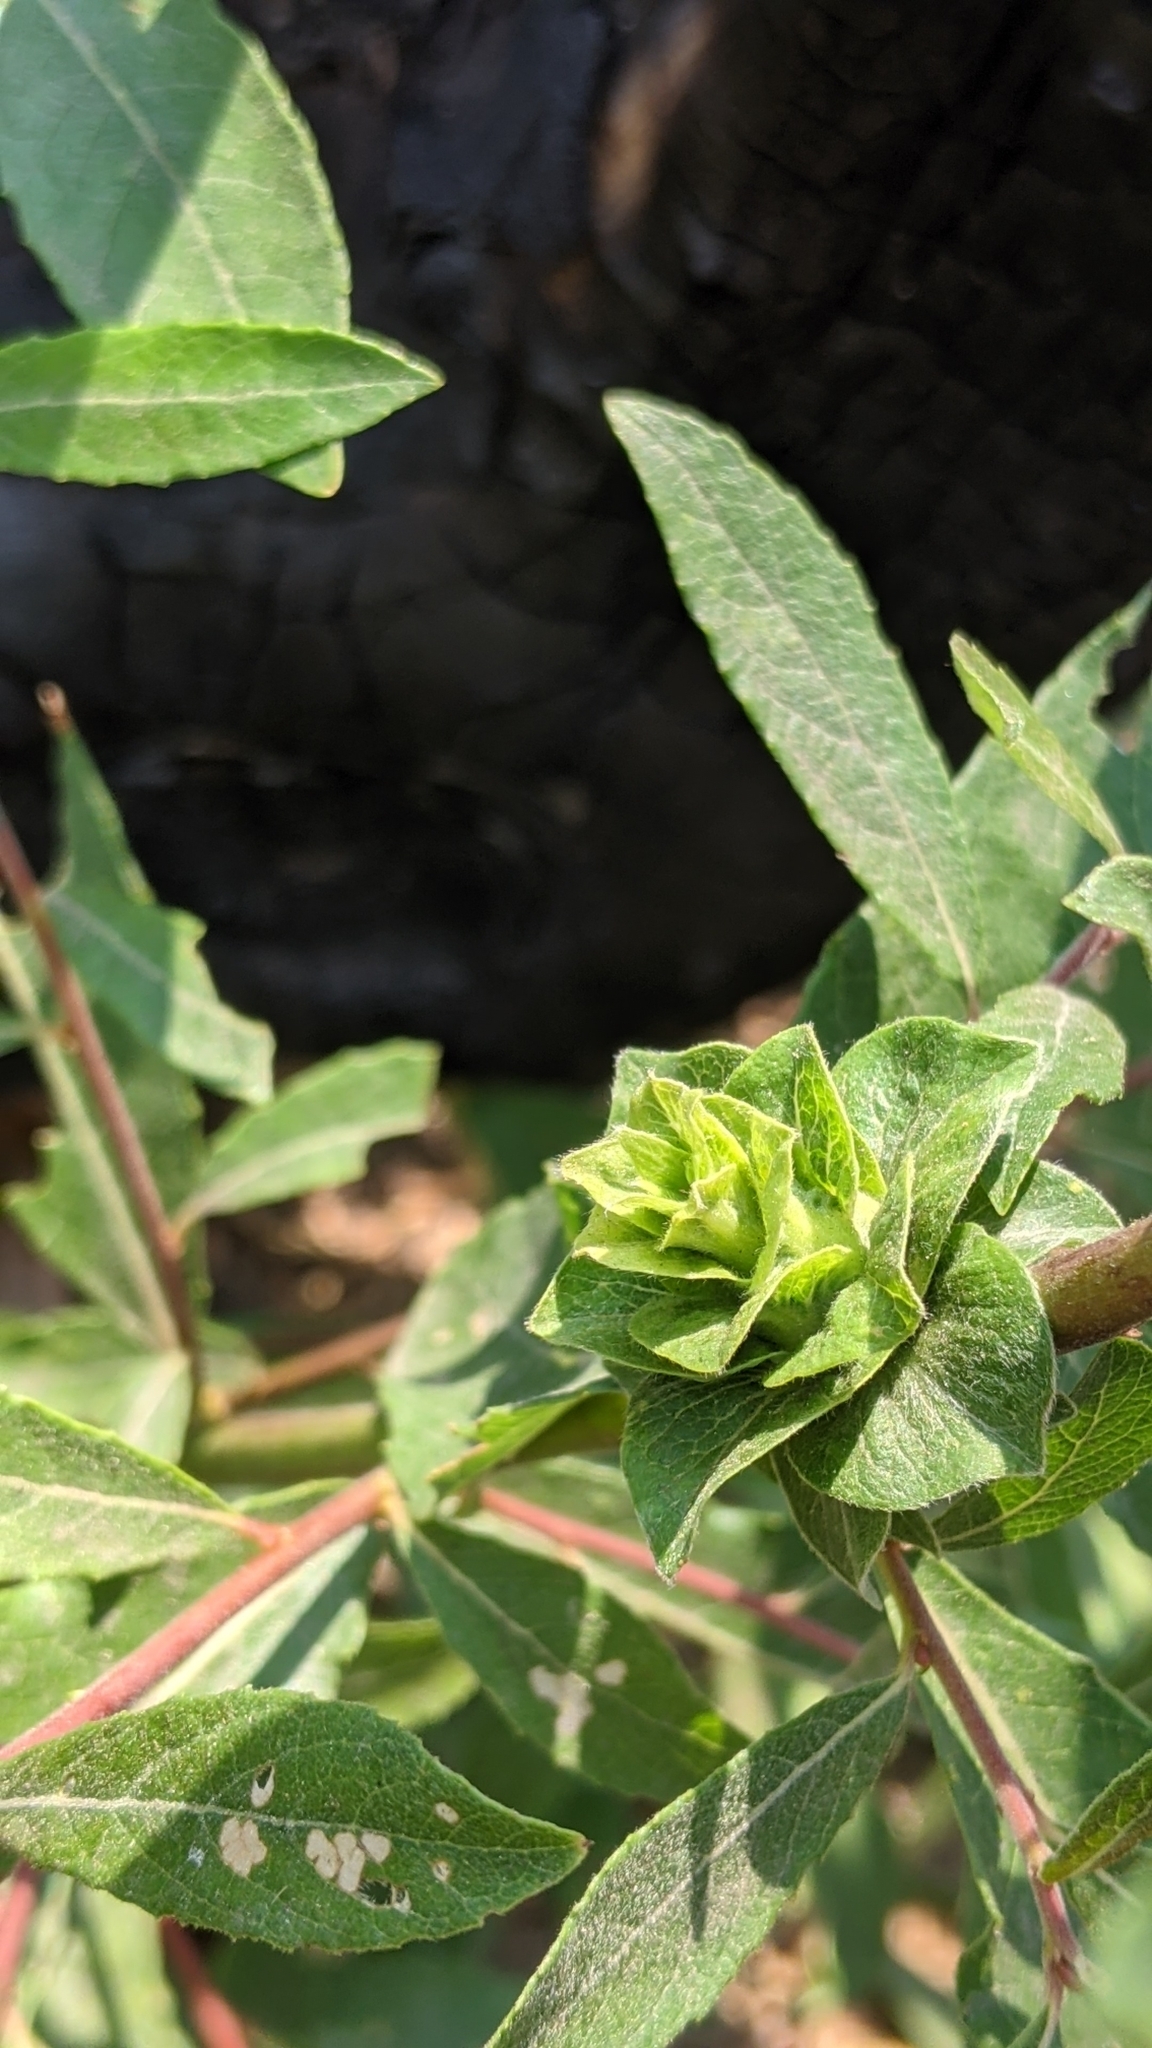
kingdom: Animalia
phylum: Arthropoda
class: Insecta
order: Diptera
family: Cecidomyiidae
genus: Rabdophaga
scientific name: Rabdophaga salicisbrassicoides
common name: Willow cabbagegall midge
